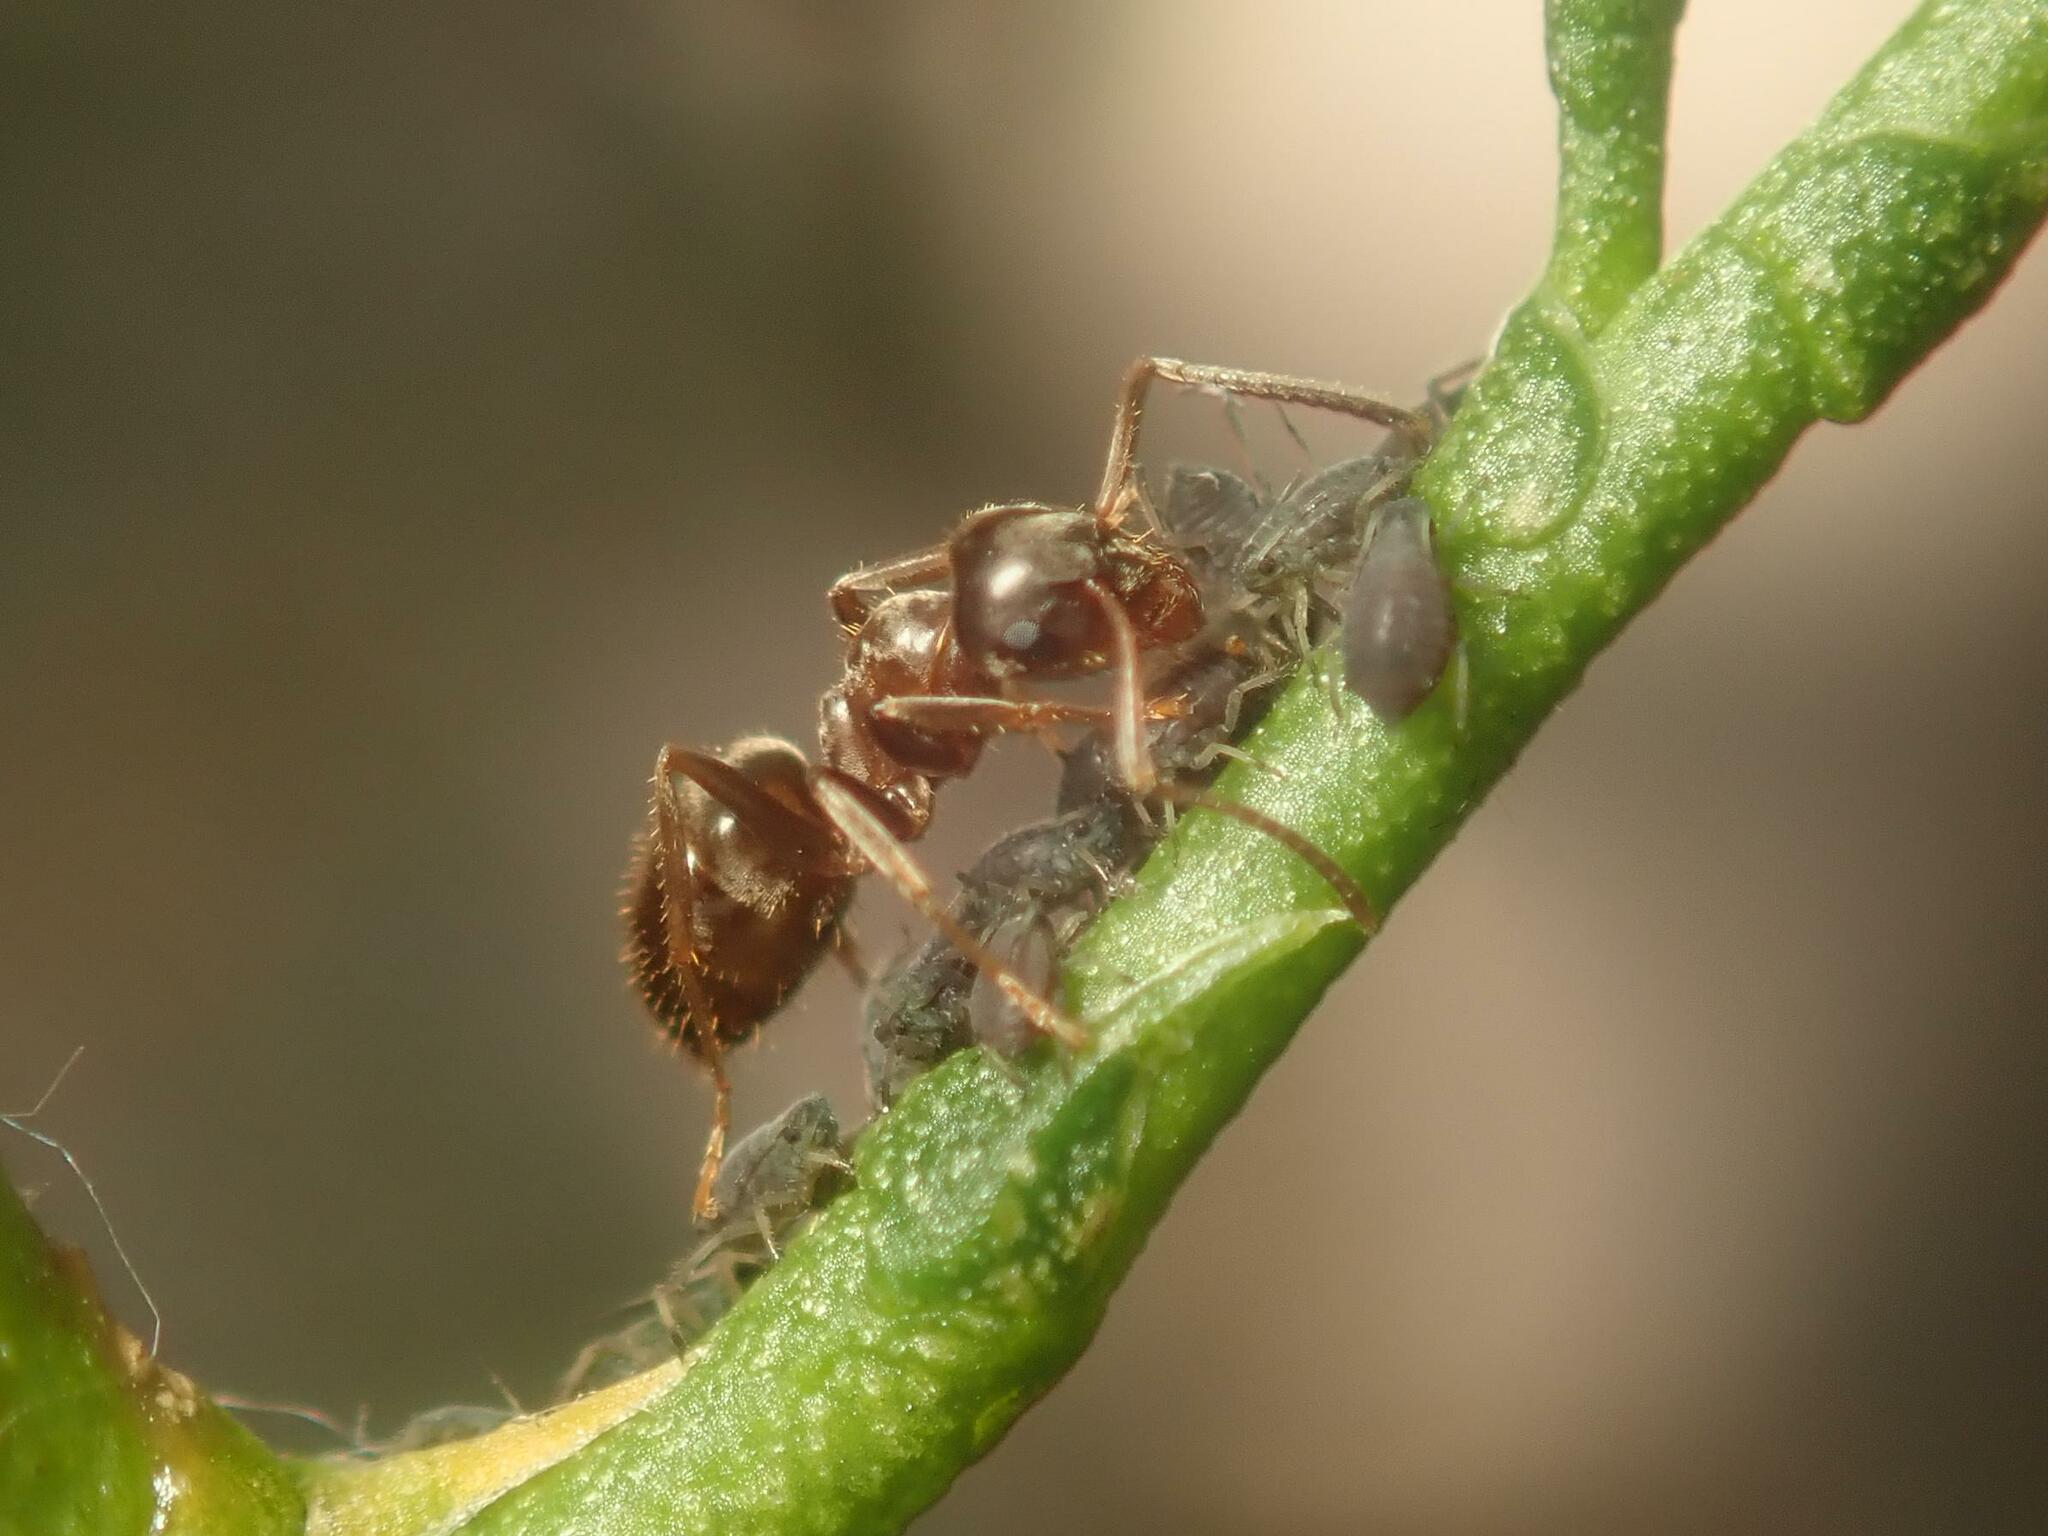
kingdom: Animalia
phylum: Arthropoda
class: Insecta
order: Hymenoptera
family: Formicidae
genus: Lasius
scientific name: Lasius niger
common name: Small black ant
